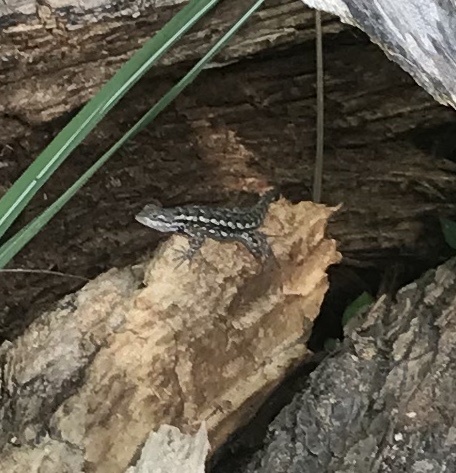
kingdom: Animalia
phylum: Chordata
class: Squamata
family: Phrynosomatidae
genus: Sceloporus
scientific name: Sceloporus olivaceus
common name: Texas spiny lizard
